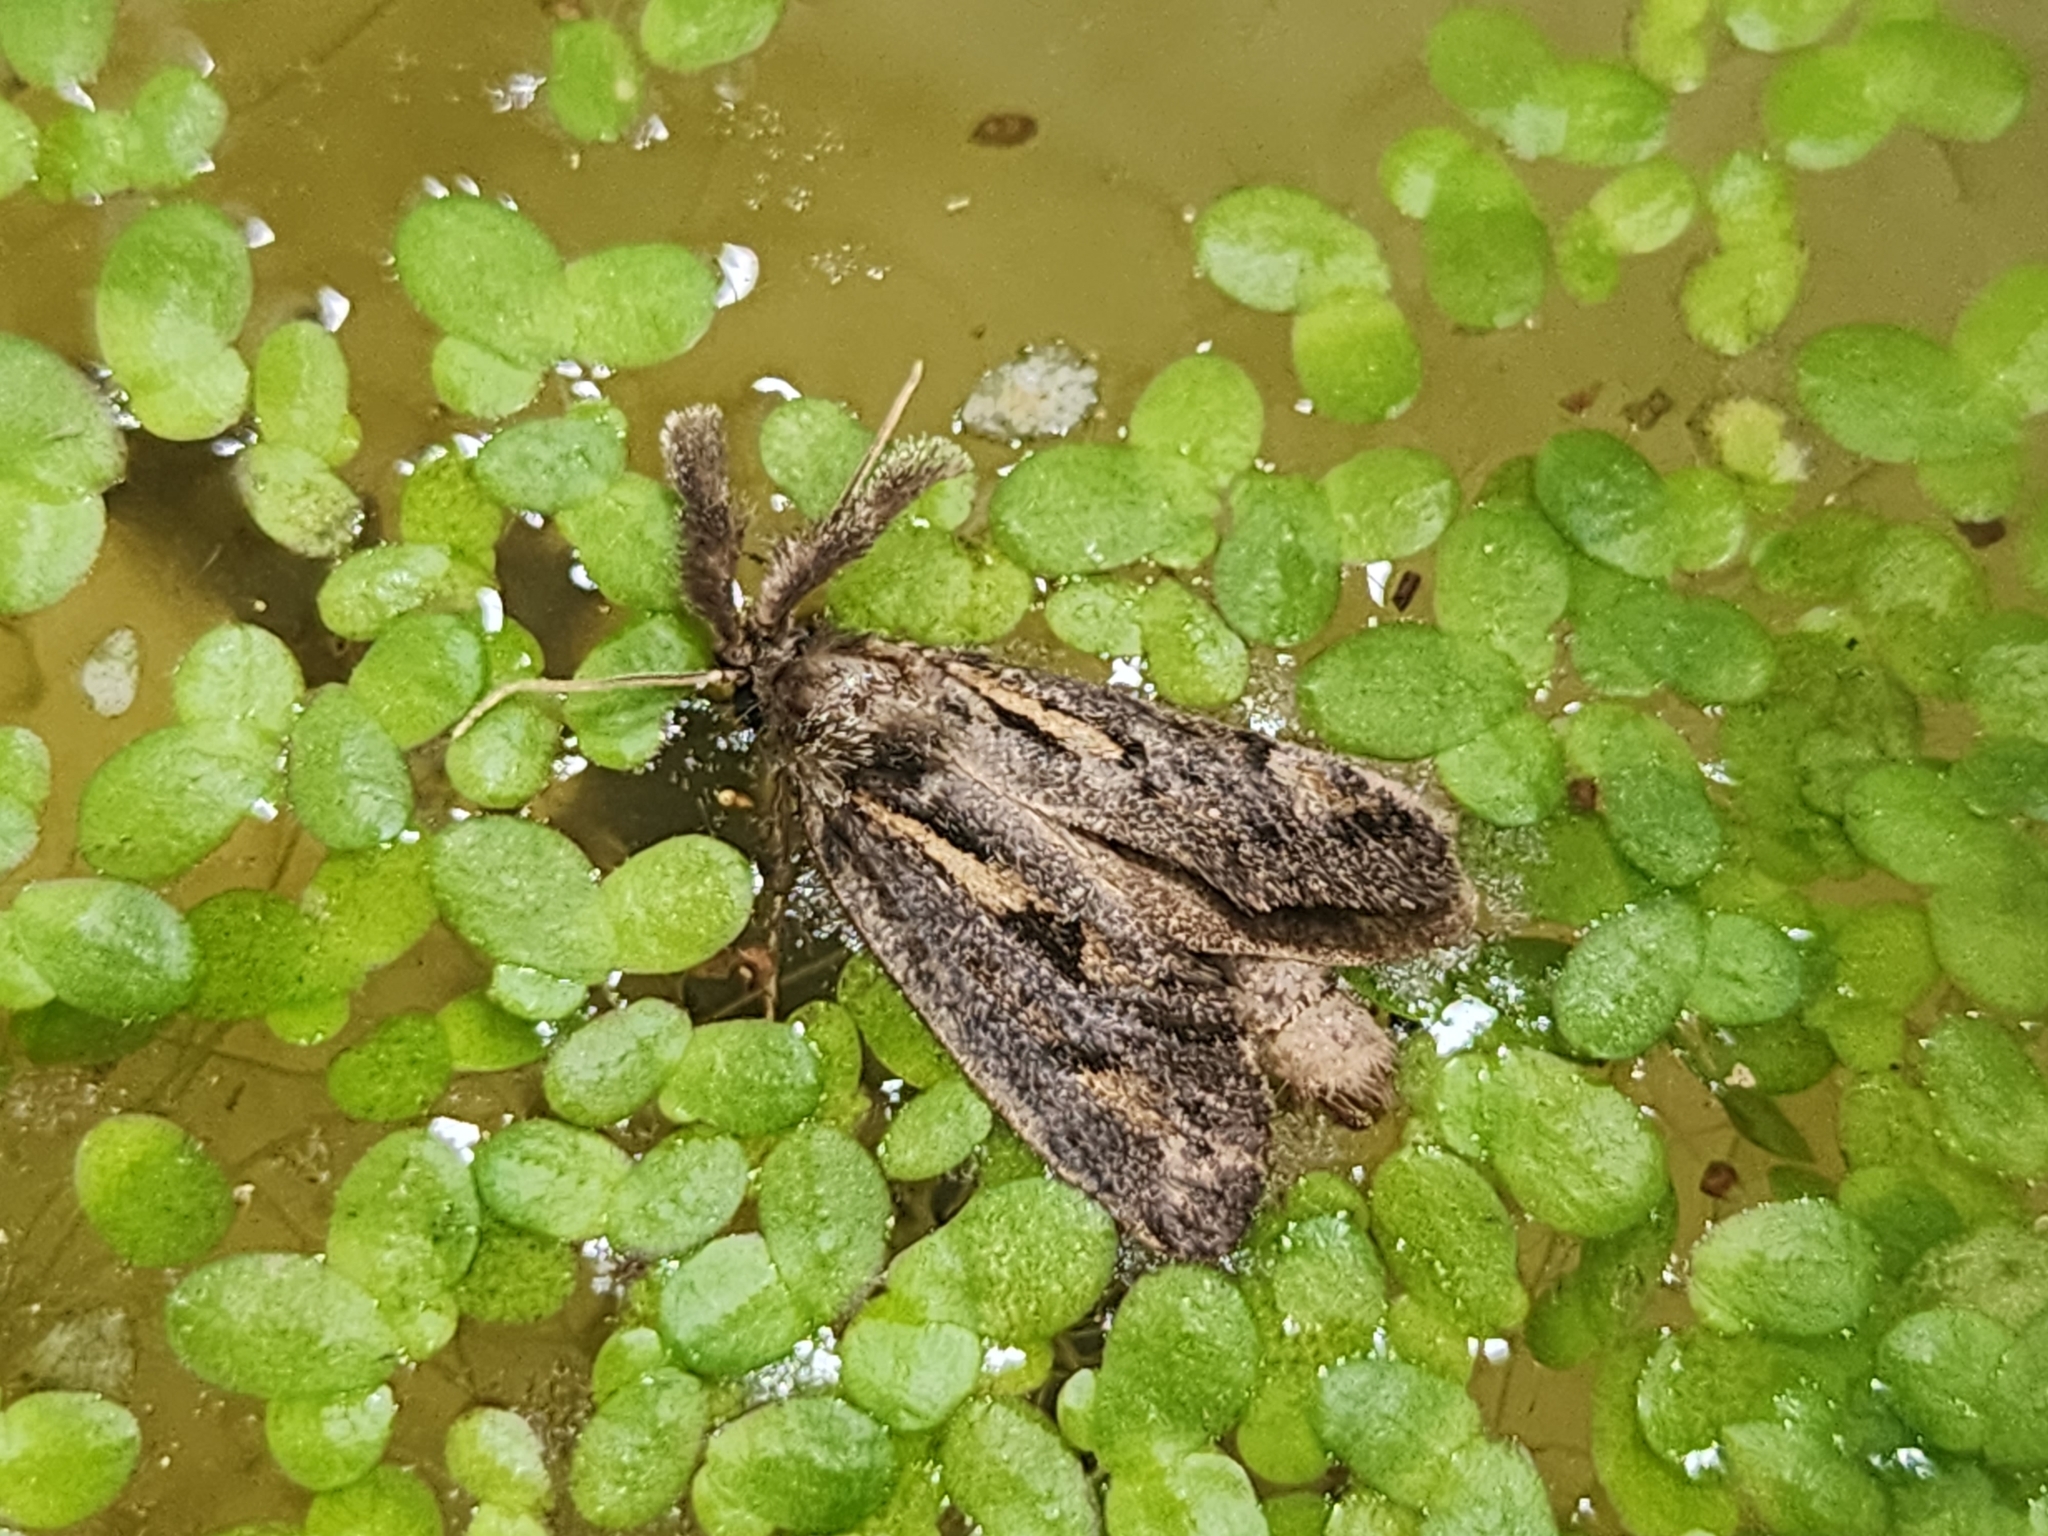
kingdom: Animalia
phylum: Arthropoda
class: Insecta
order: Lepidoptera
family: Tineidae
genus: Acrolophus
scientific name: Acrolophus popeanella
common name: Clemens' grass tubeworm moth
